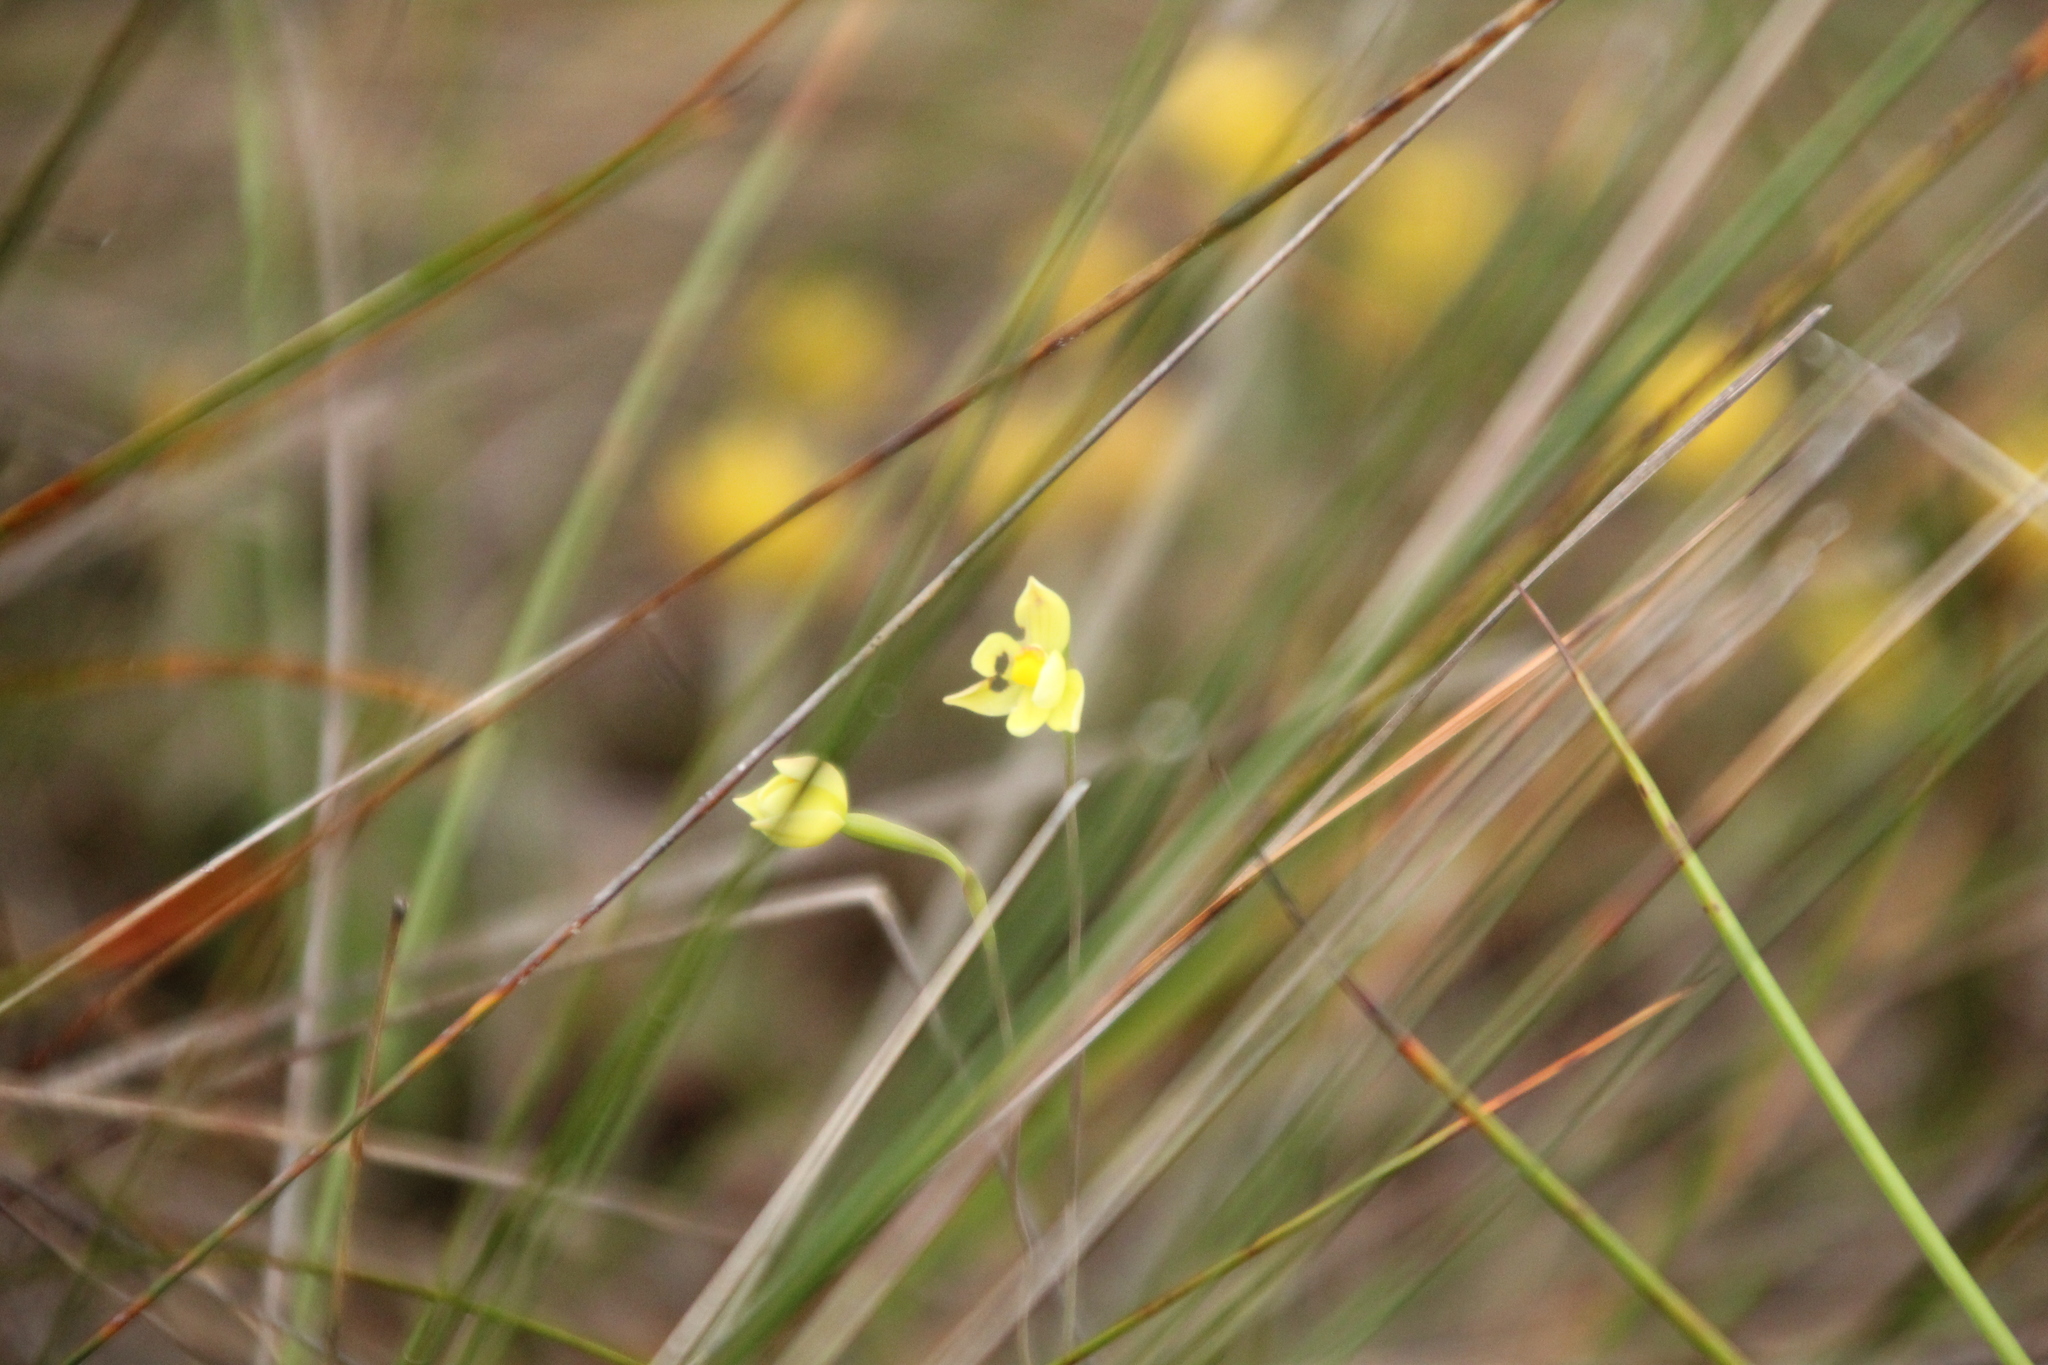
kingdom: Plantae
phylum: Tracheophyta
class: Liliopsida
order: Asparagales
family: Orchidaceae
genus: Thelymitra
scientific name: Thelymitra flexuosa
